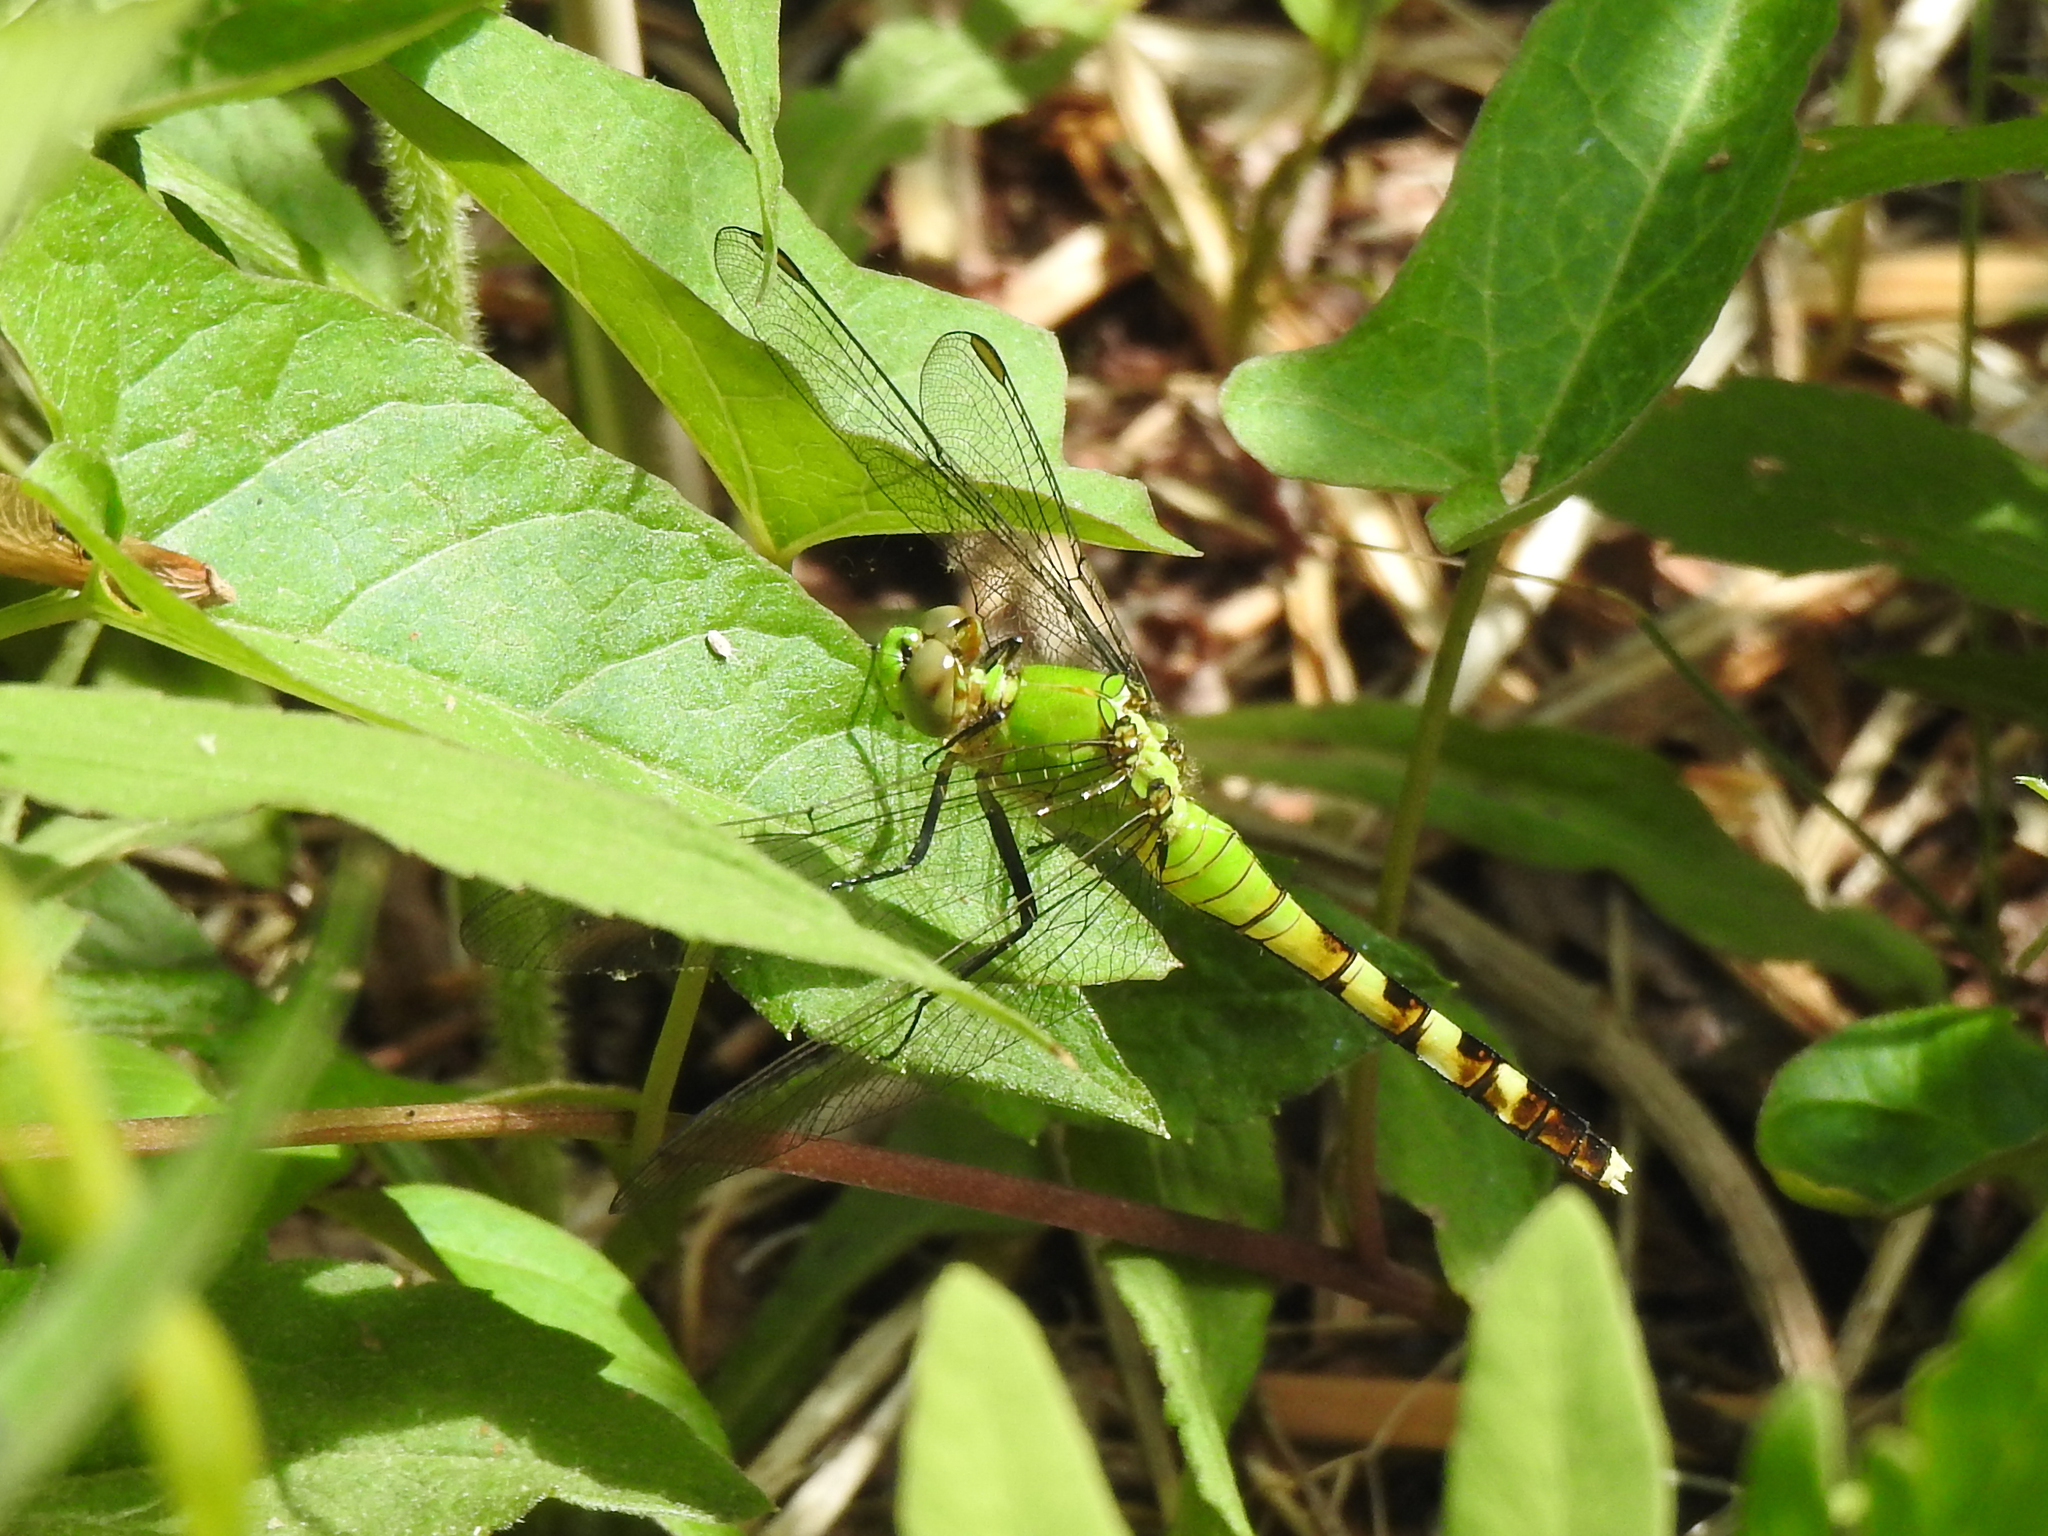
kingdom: Animalia
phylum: Arthropoda
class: Insecta
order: Odonata
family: Libellulidae
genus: Erythemis
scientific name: Erythemis simplicicollis
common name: Eastern pondhawk
